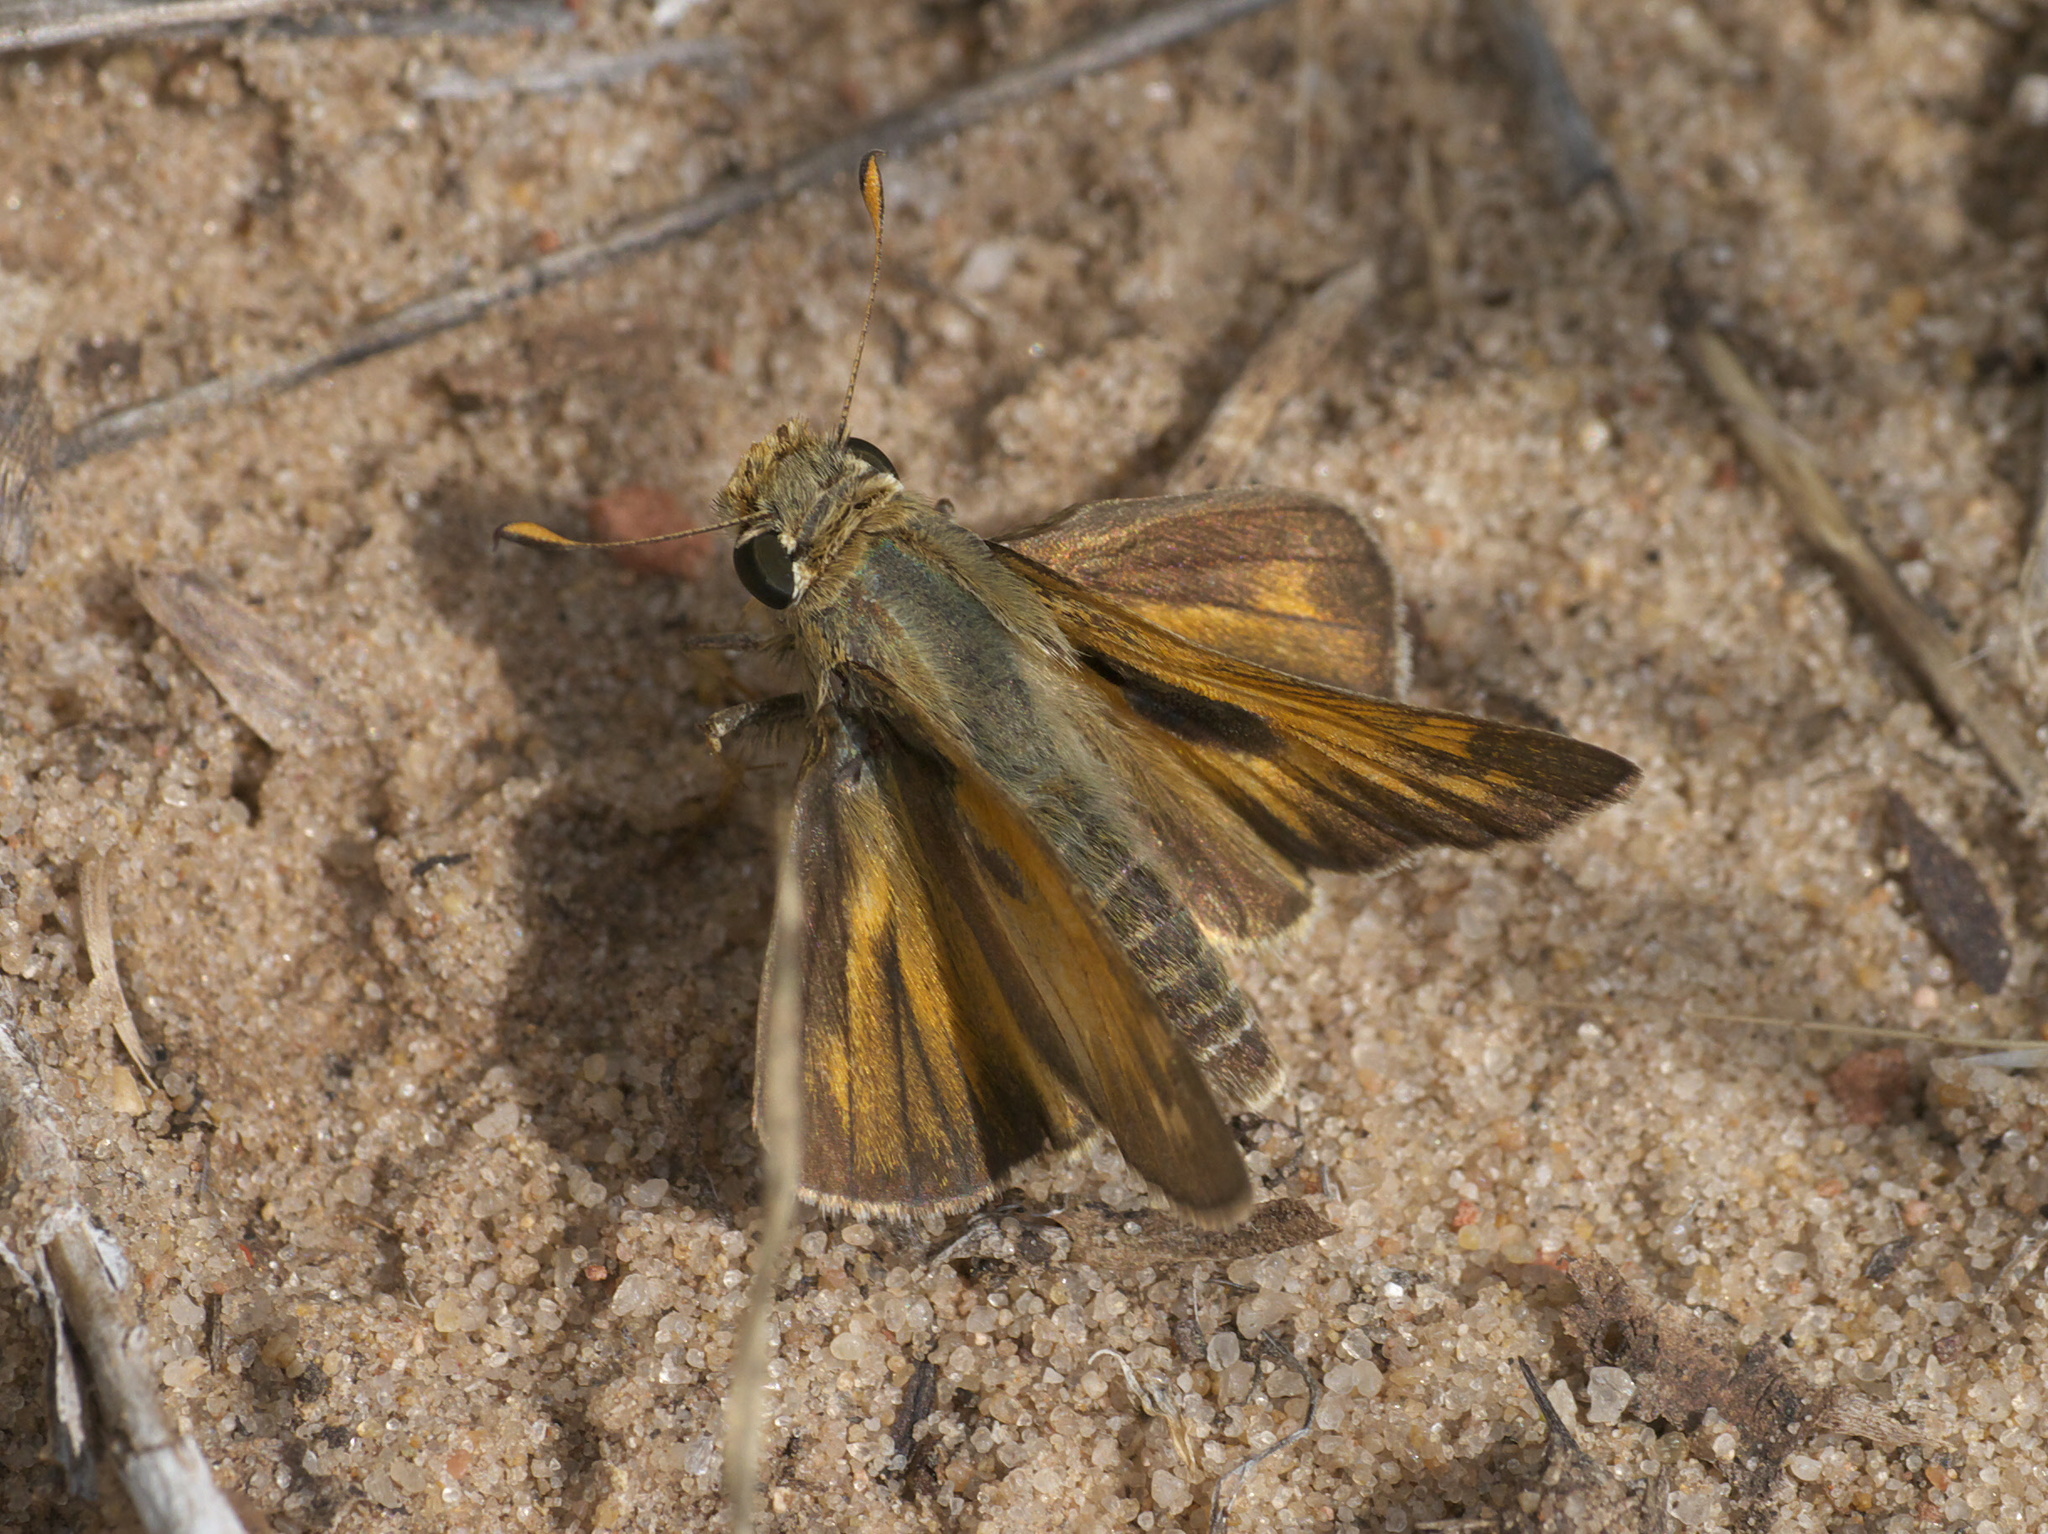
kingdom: Animalia
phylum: Arthropoda
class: Insecta
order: Lepidoptera
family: Hesperiidae
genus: Atalopedes
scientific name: Atalopedes
